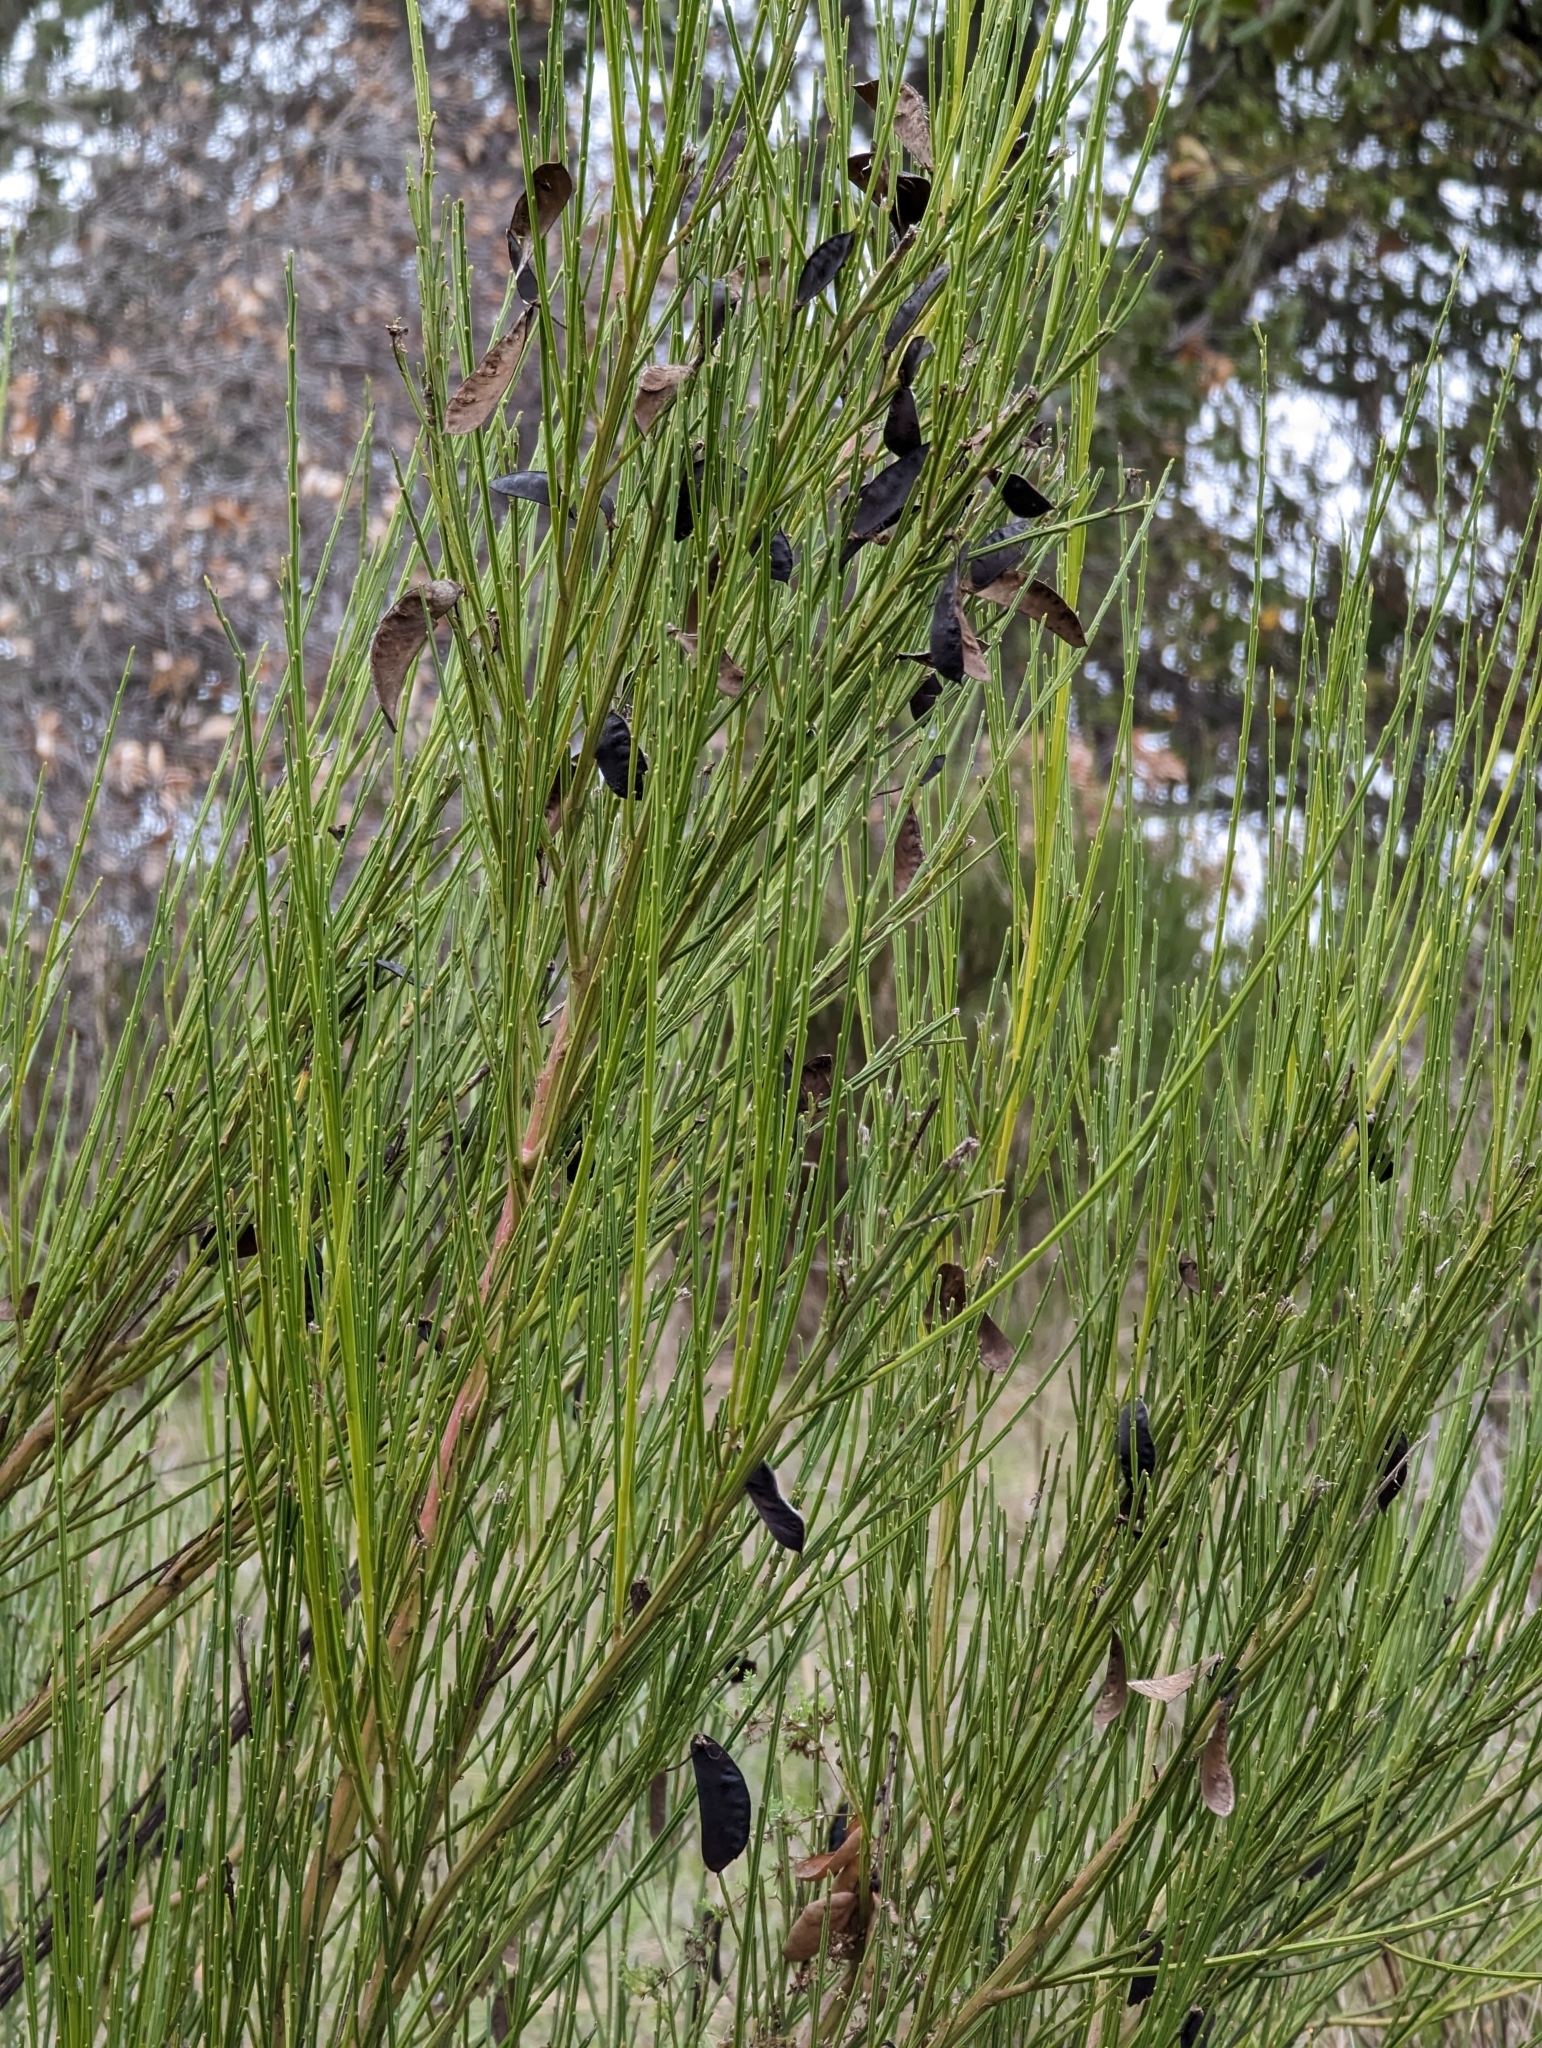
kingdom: Plantae
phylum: Tracheophyta
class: Magnoliopsida
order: Fabales
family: Fabaceae
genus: Cytisus
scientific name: Cytisus scoparius
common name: Scotch broom
